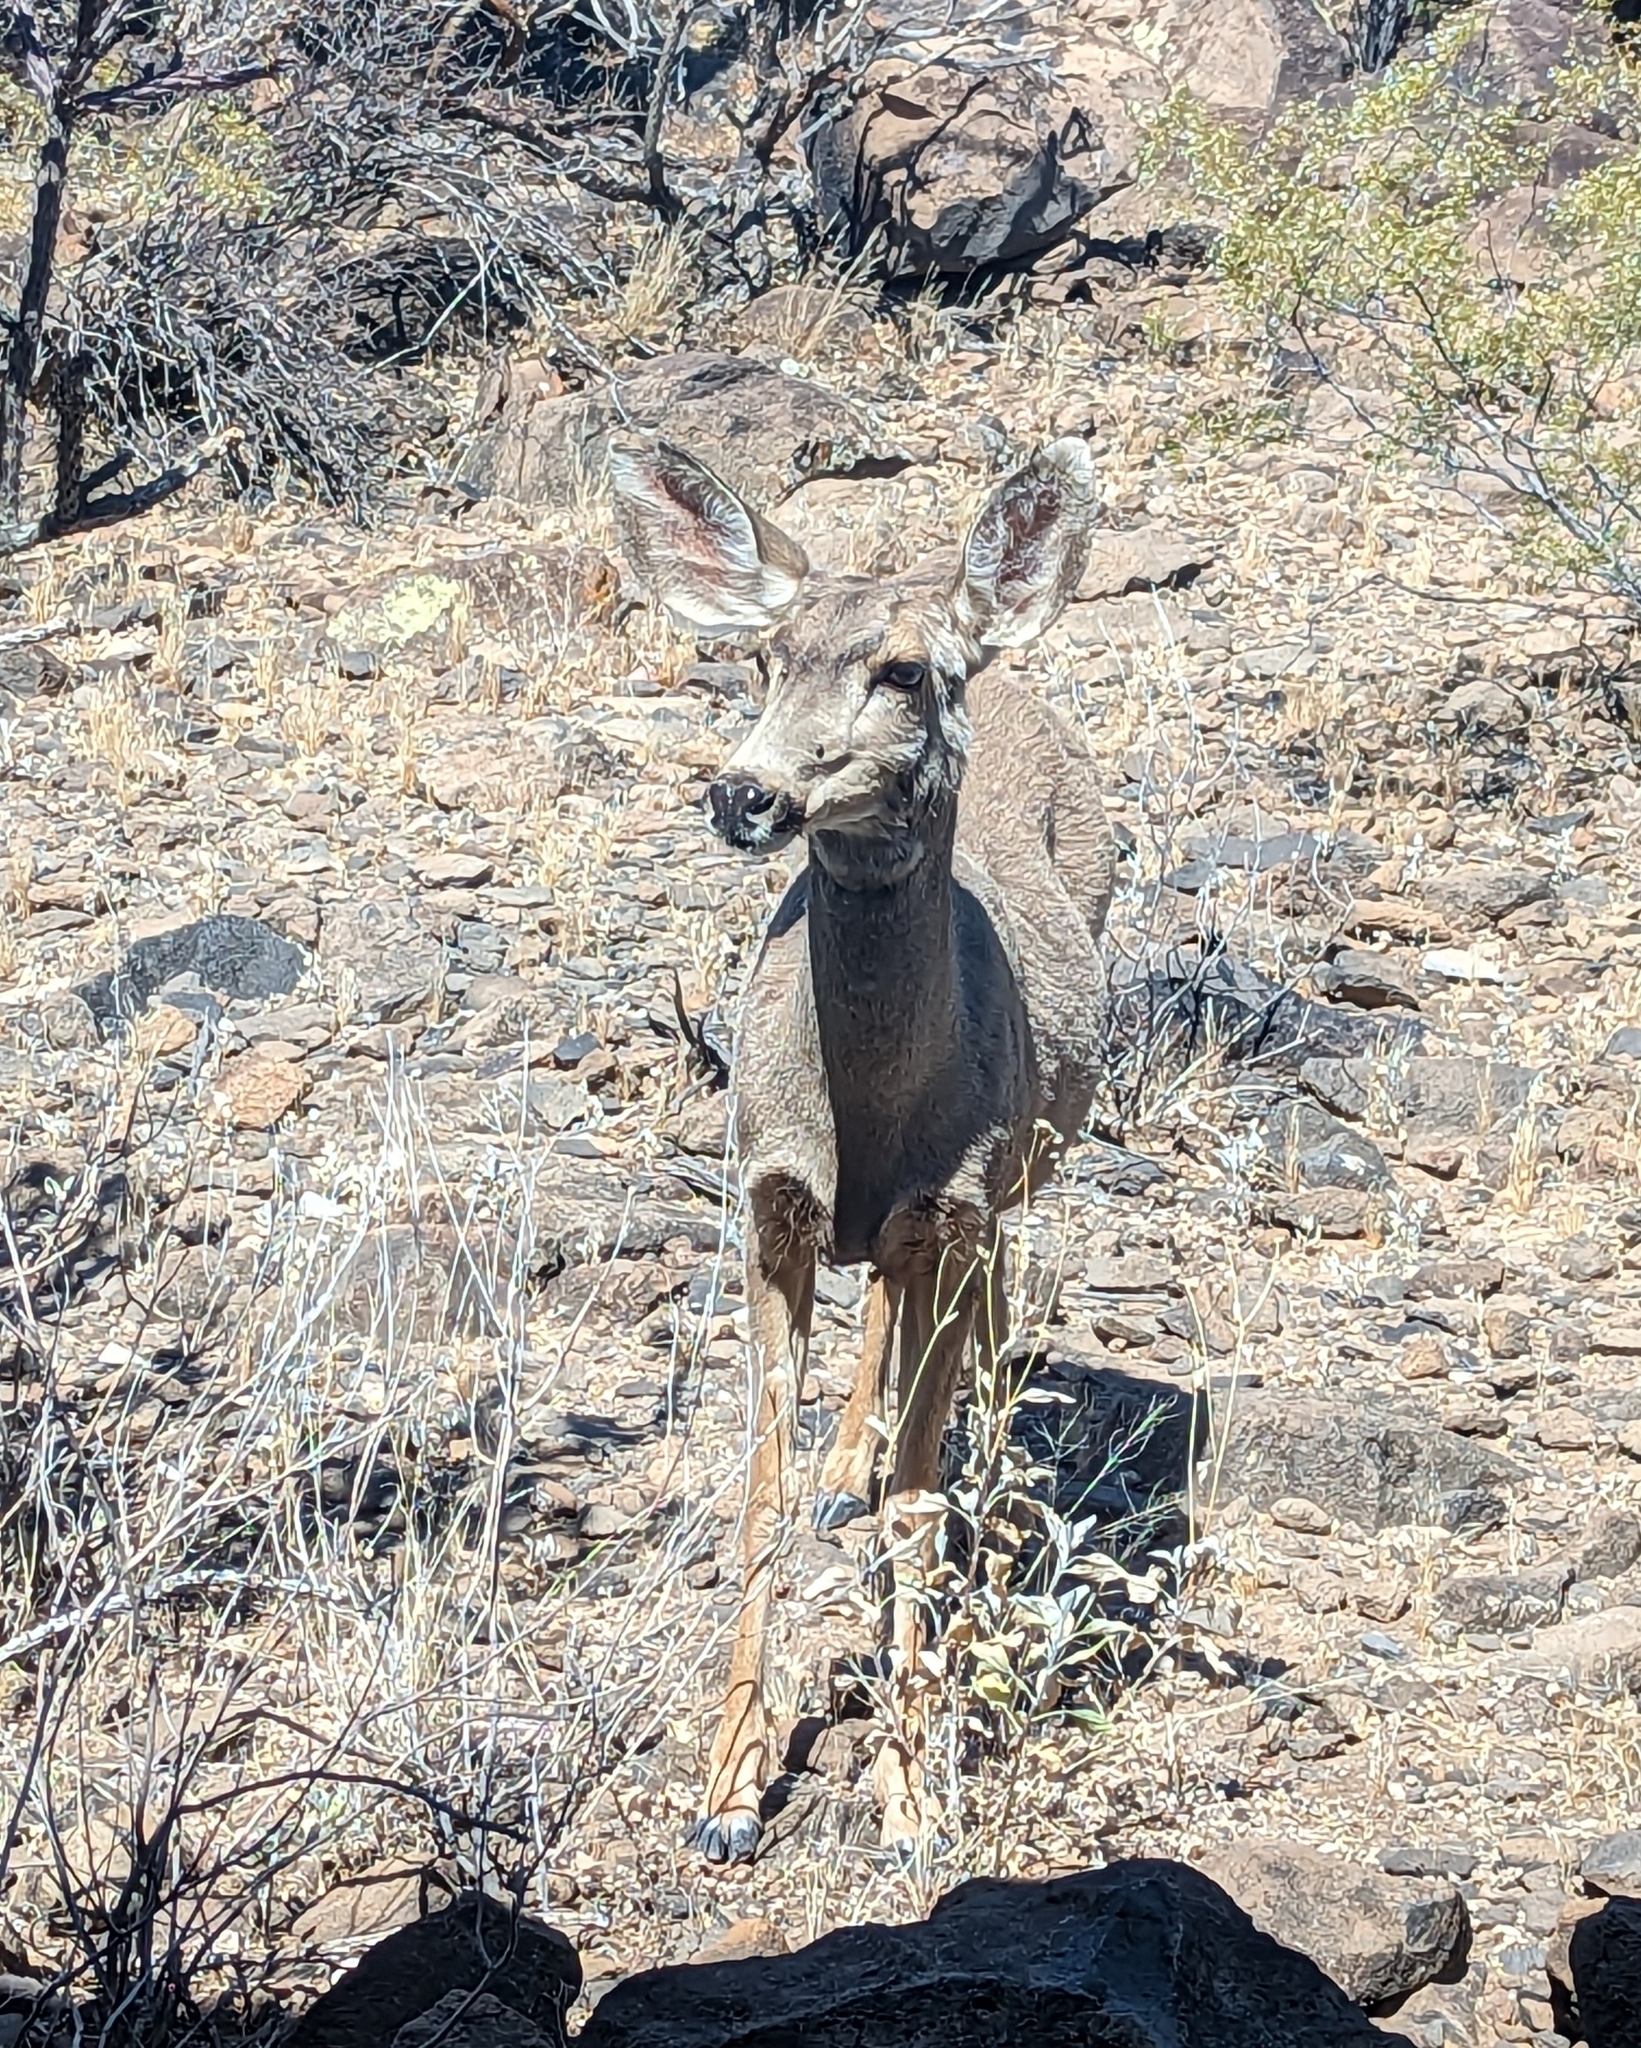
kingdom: Animalia
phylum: Chordata
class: Mammalia
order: Artiodactyla
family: Cervidae
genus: Odocoileus
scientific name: Odocoileus hemionus
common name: Mule deer
